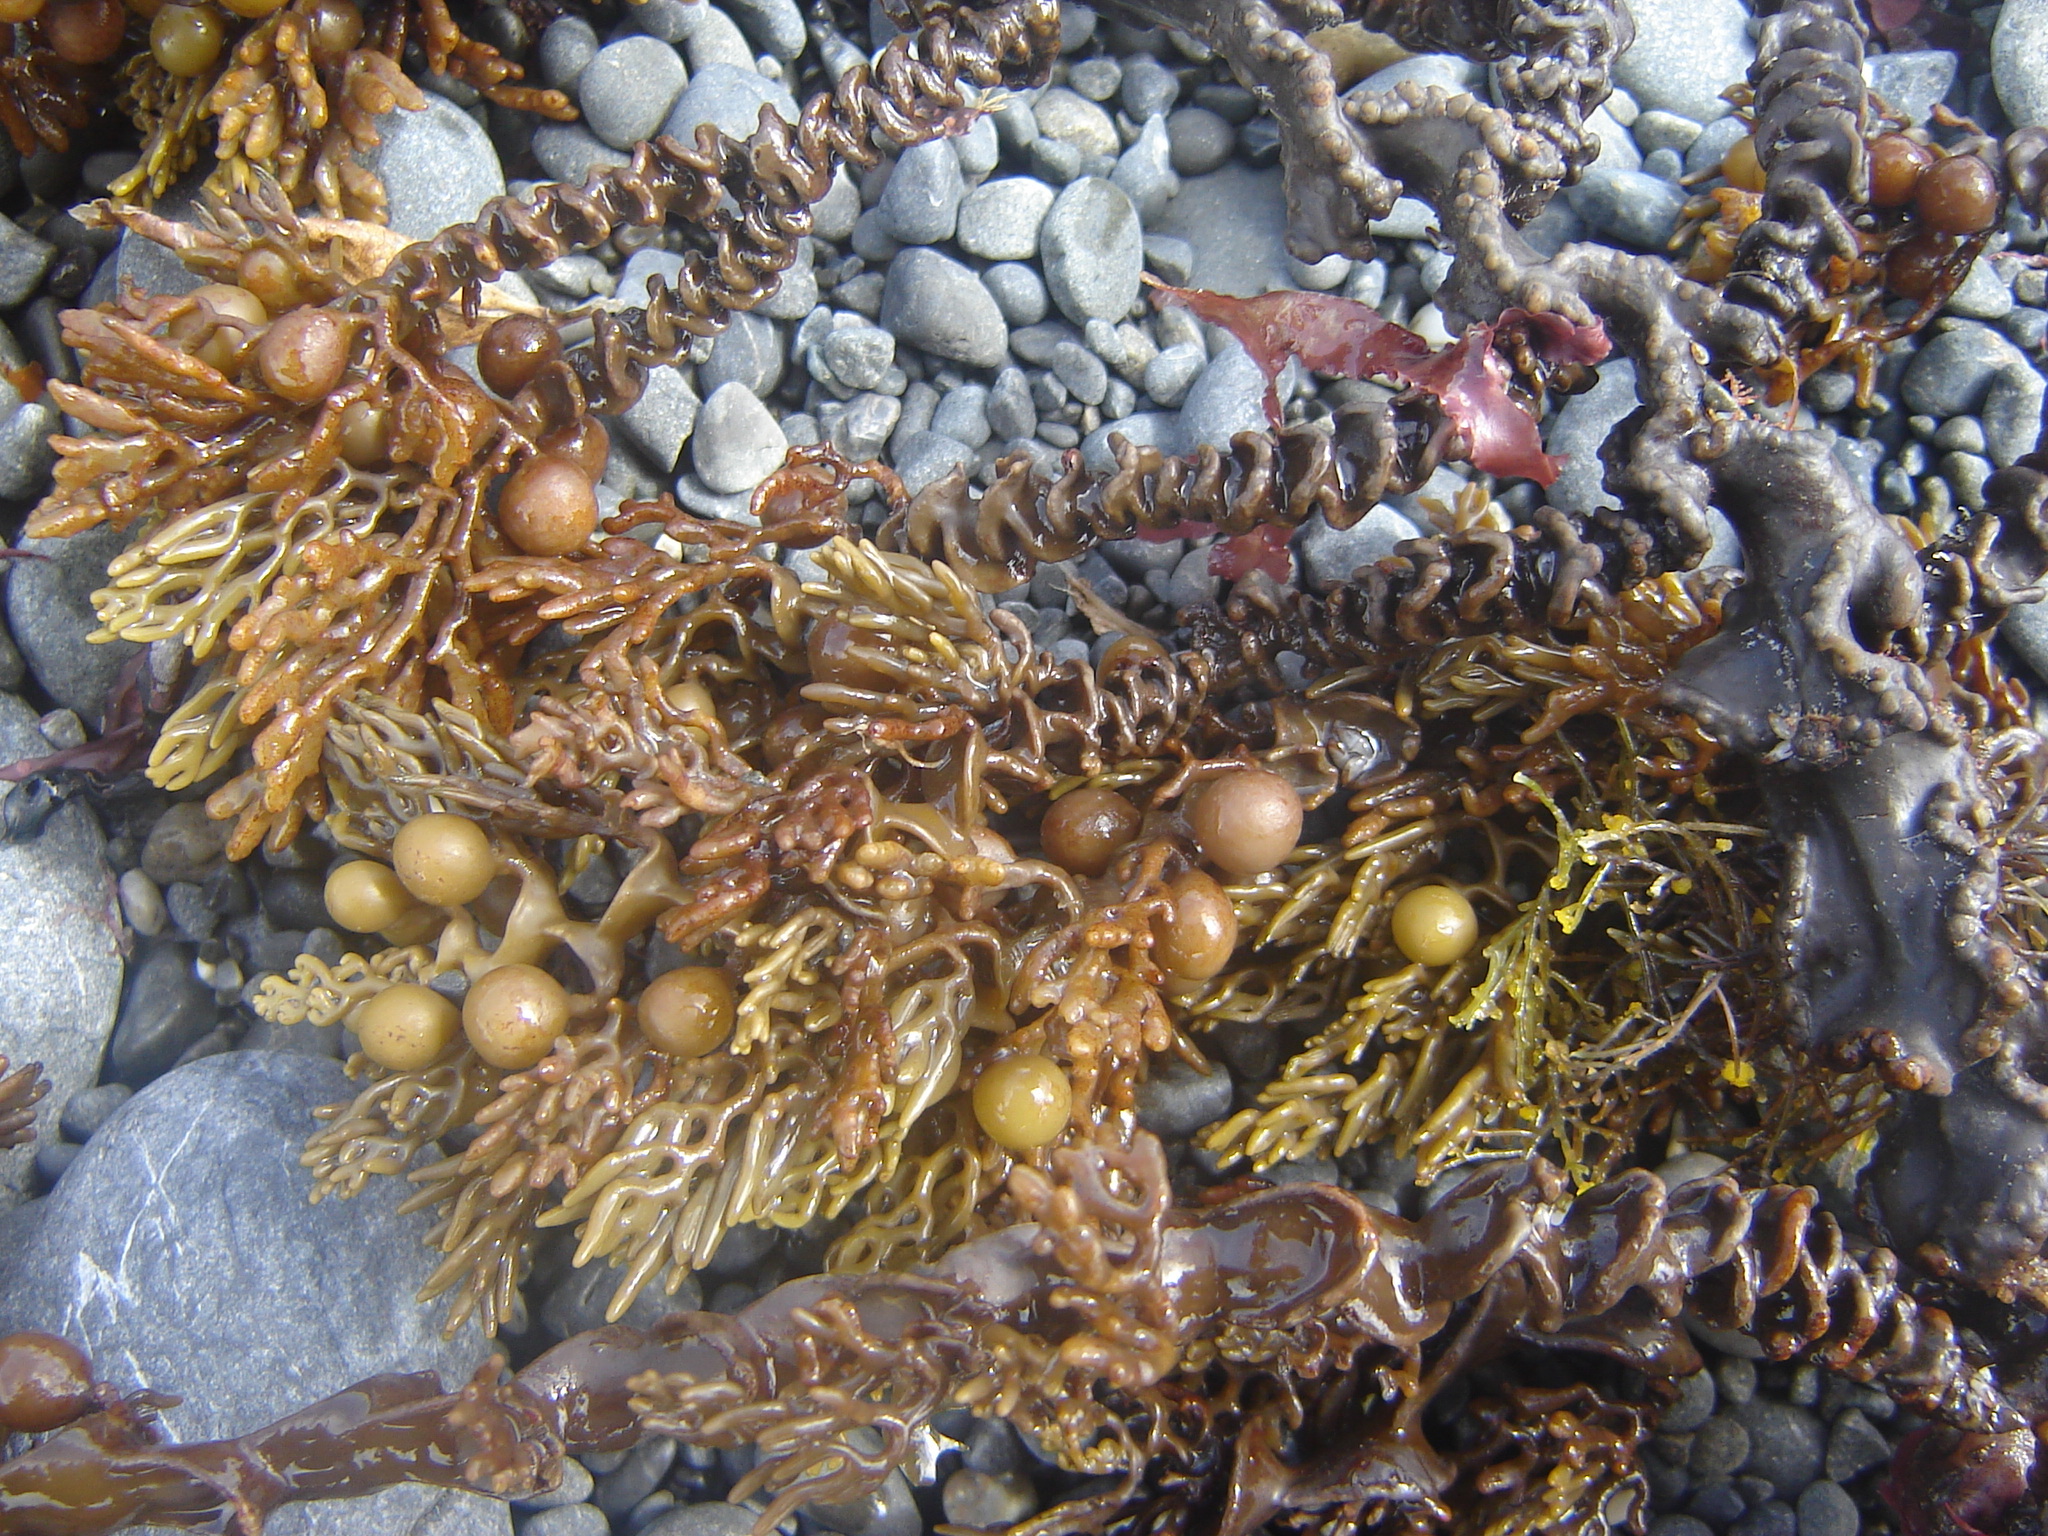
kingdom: Chromista
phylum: Ochrophyta
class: Phaeophyceae
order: Fucales
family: Sargassaceae
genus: Cystophora
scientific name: Cystophora scalaris
